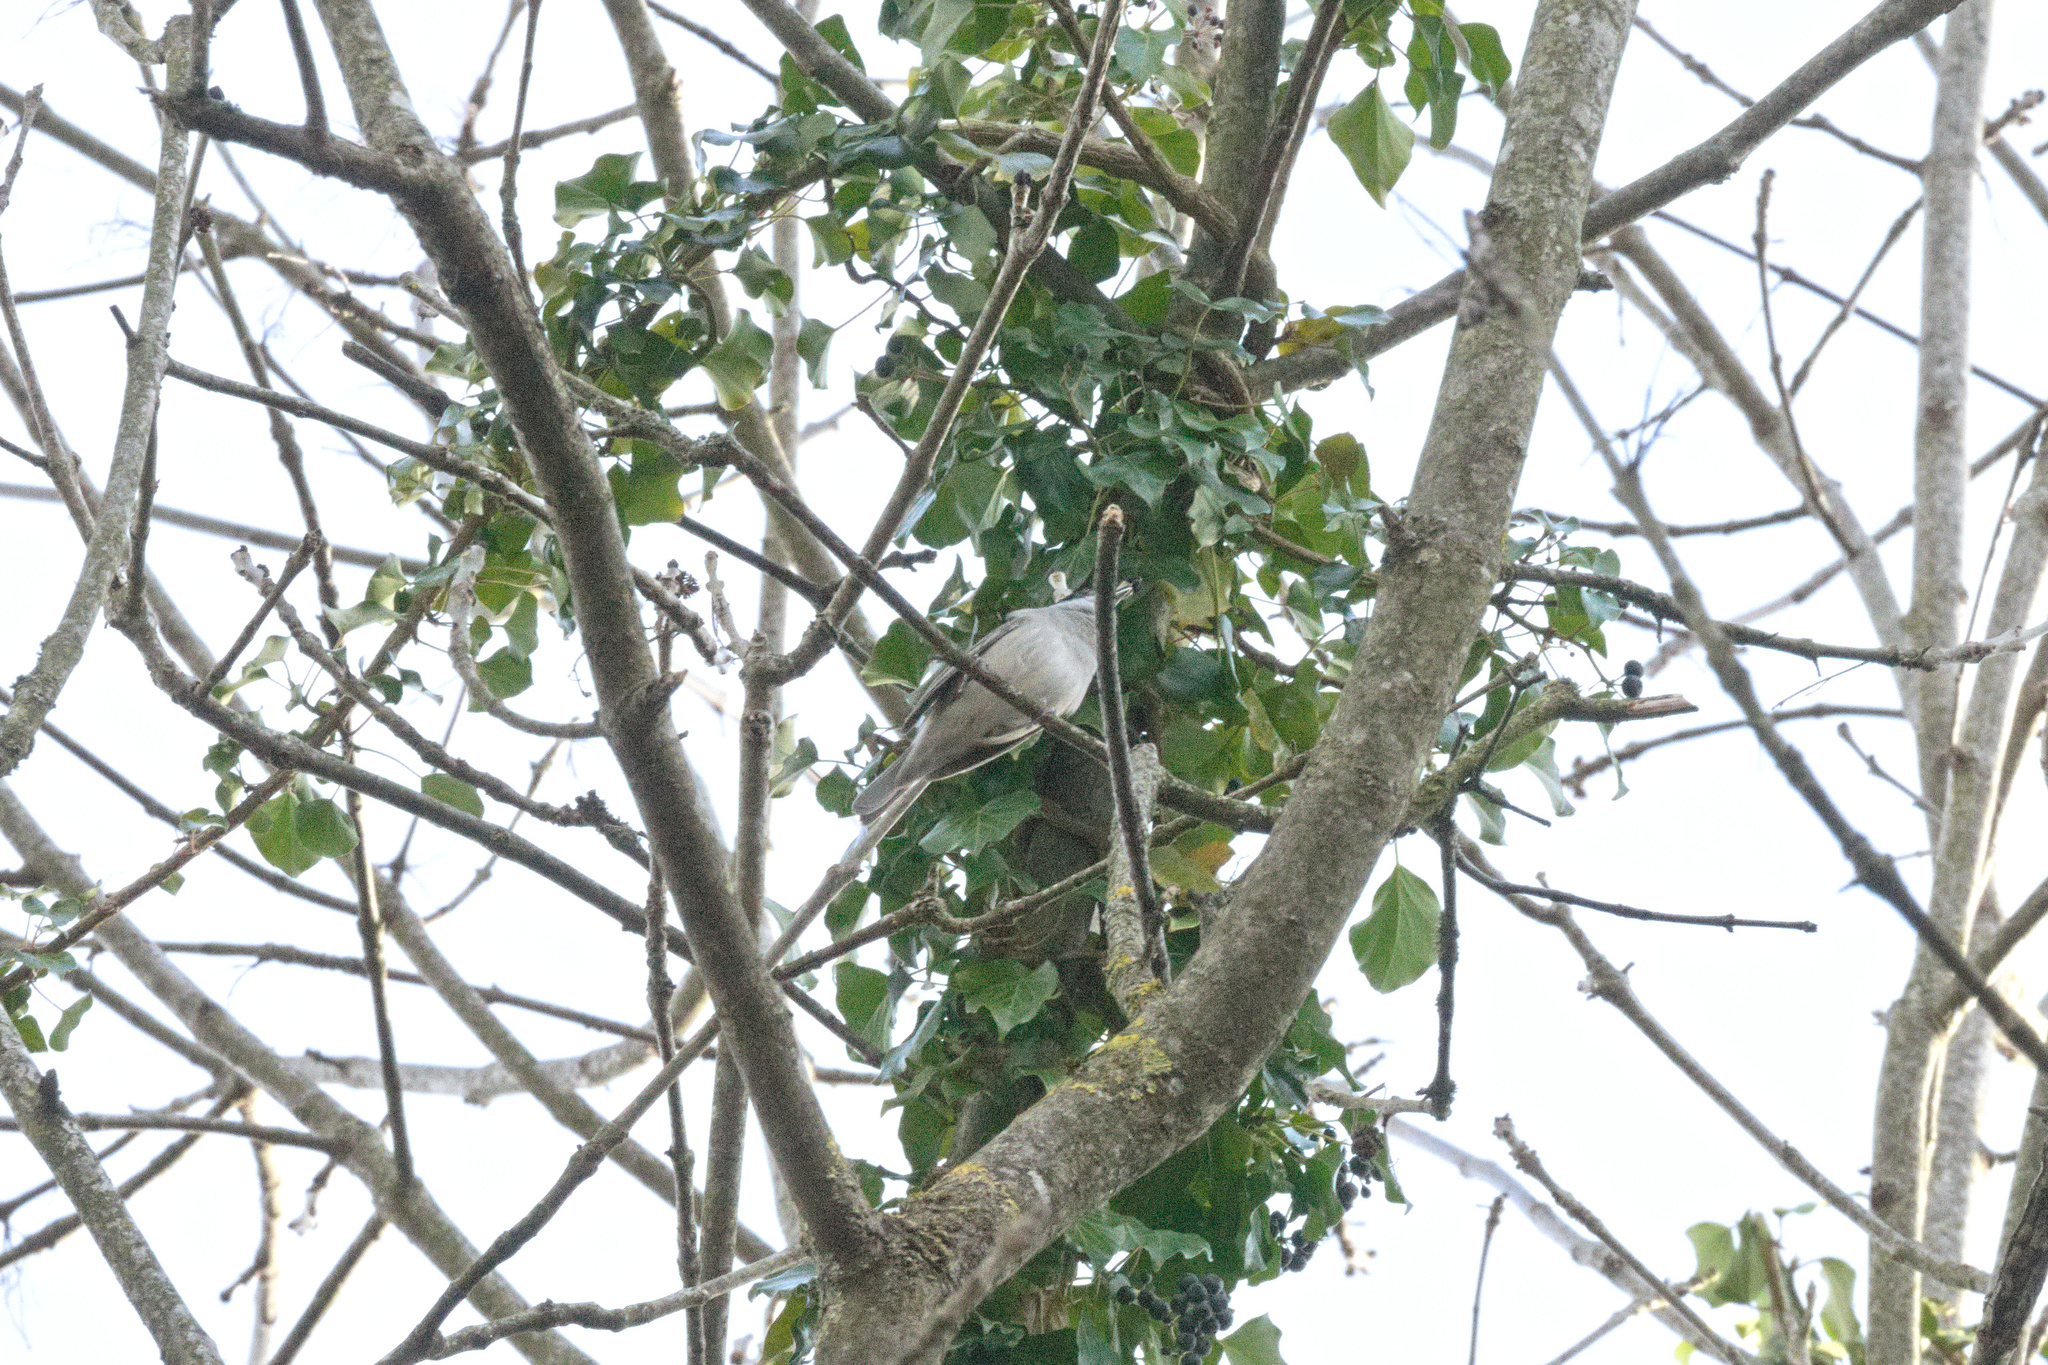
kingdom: Animalia
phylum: Chordata
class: Aves
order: Passeriformes
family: Sylviidae
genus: Sylvia
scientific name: Sylvia atricapilla
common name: Eurasian blackcap
